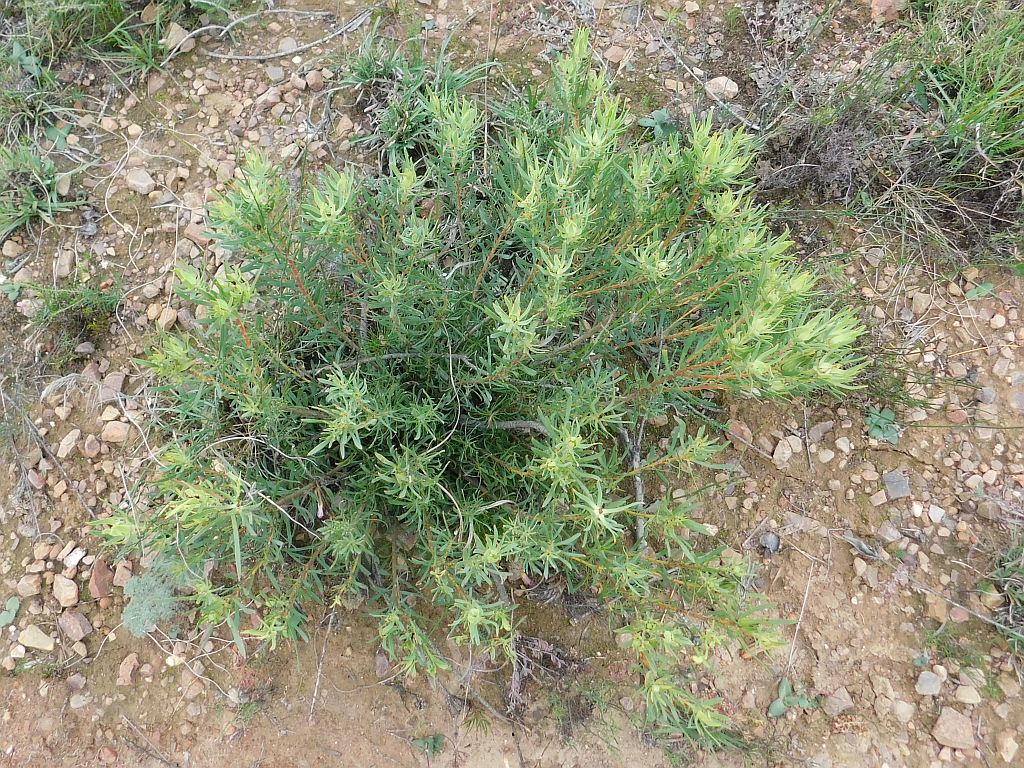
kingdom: Plantae
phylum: Tracheophyta
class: Magnoliopsida
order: Proteales
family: Proteaceae
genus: Leucadendron
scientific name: Leucadendron salignum
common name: Common sunshine conebush
